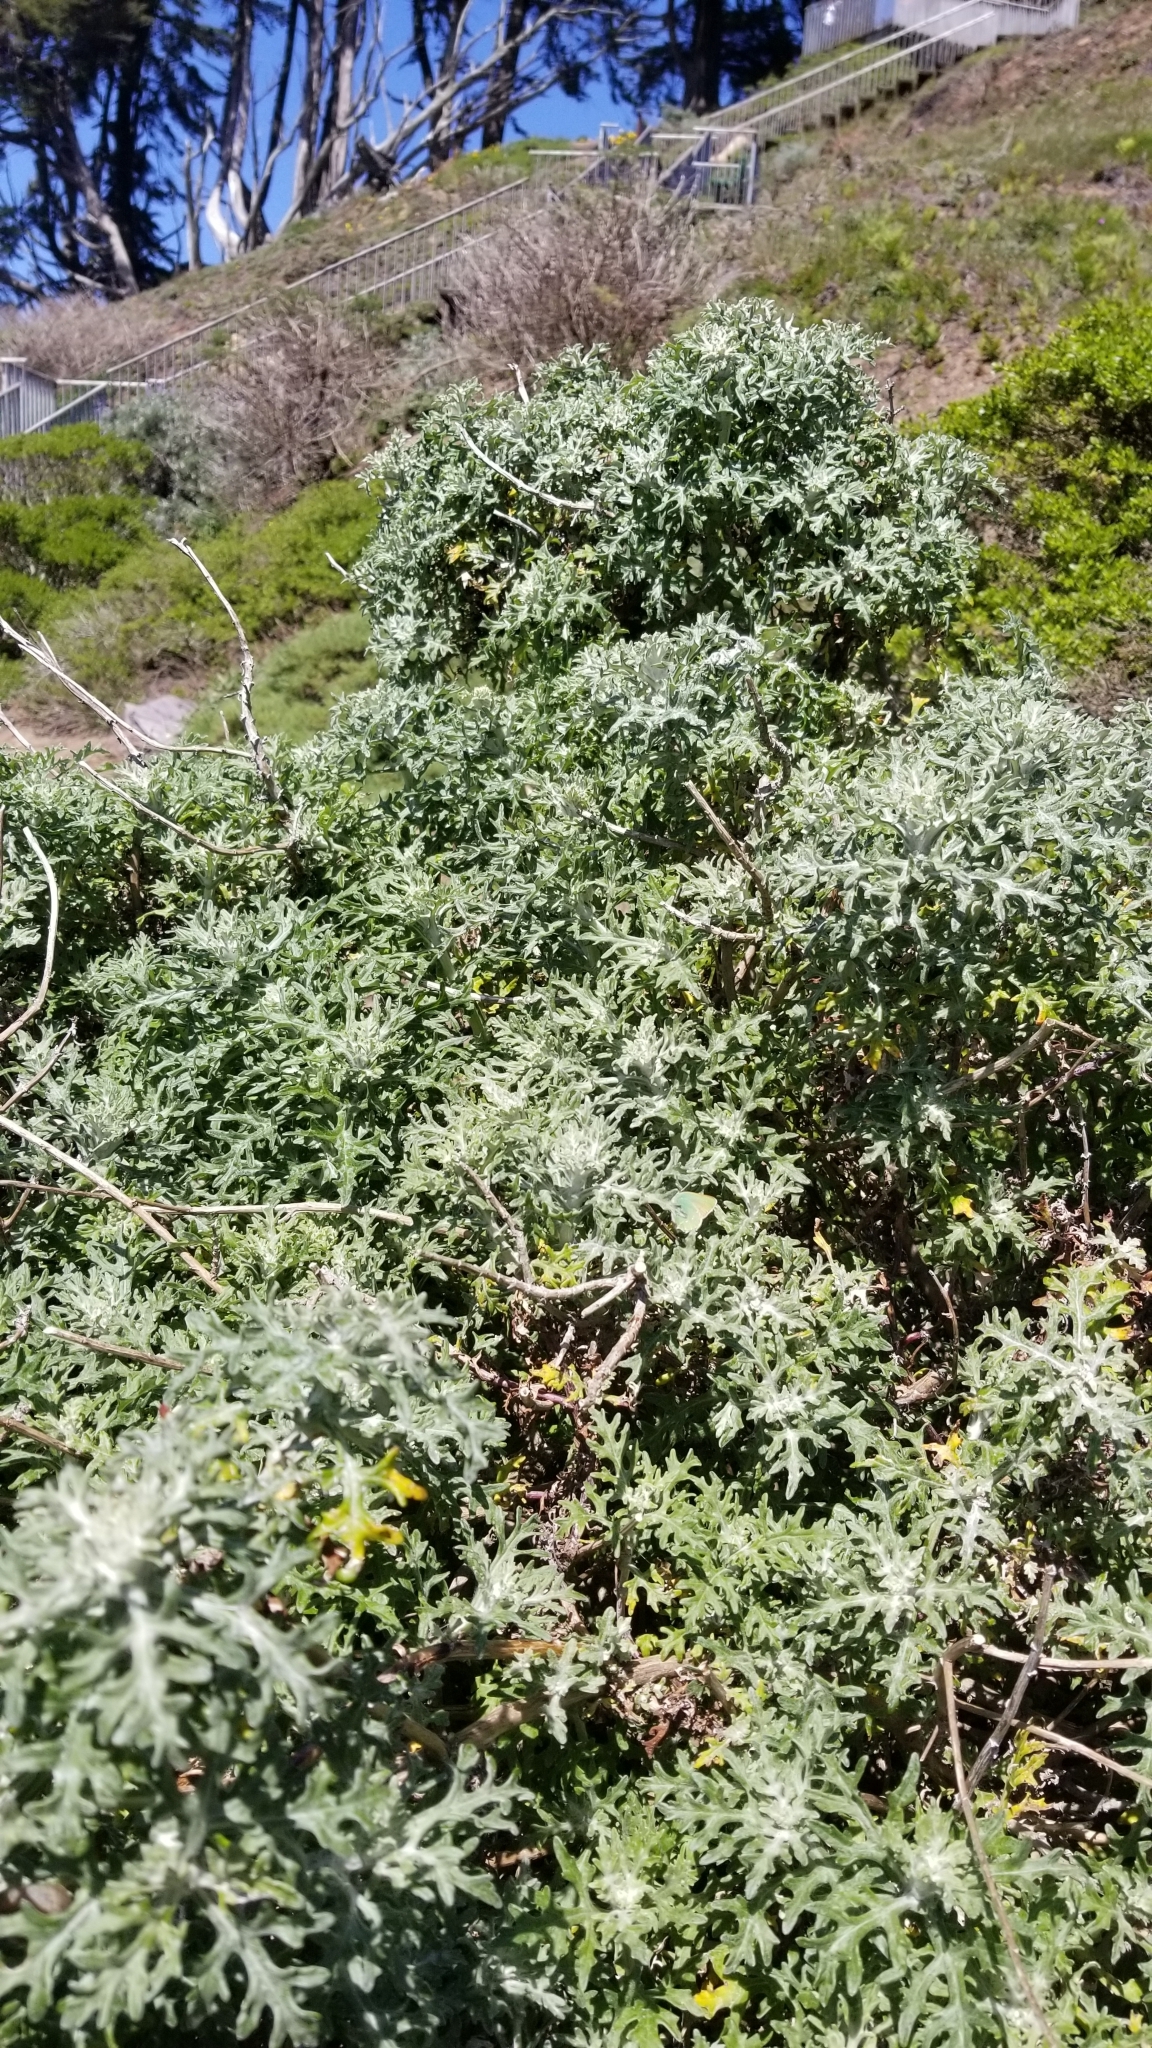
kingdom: Animalia
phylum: Arthropoda
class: Insecta
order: Lepidoptera
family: Lycaenidae
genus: Callophrys
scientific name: Callophrys viridis
